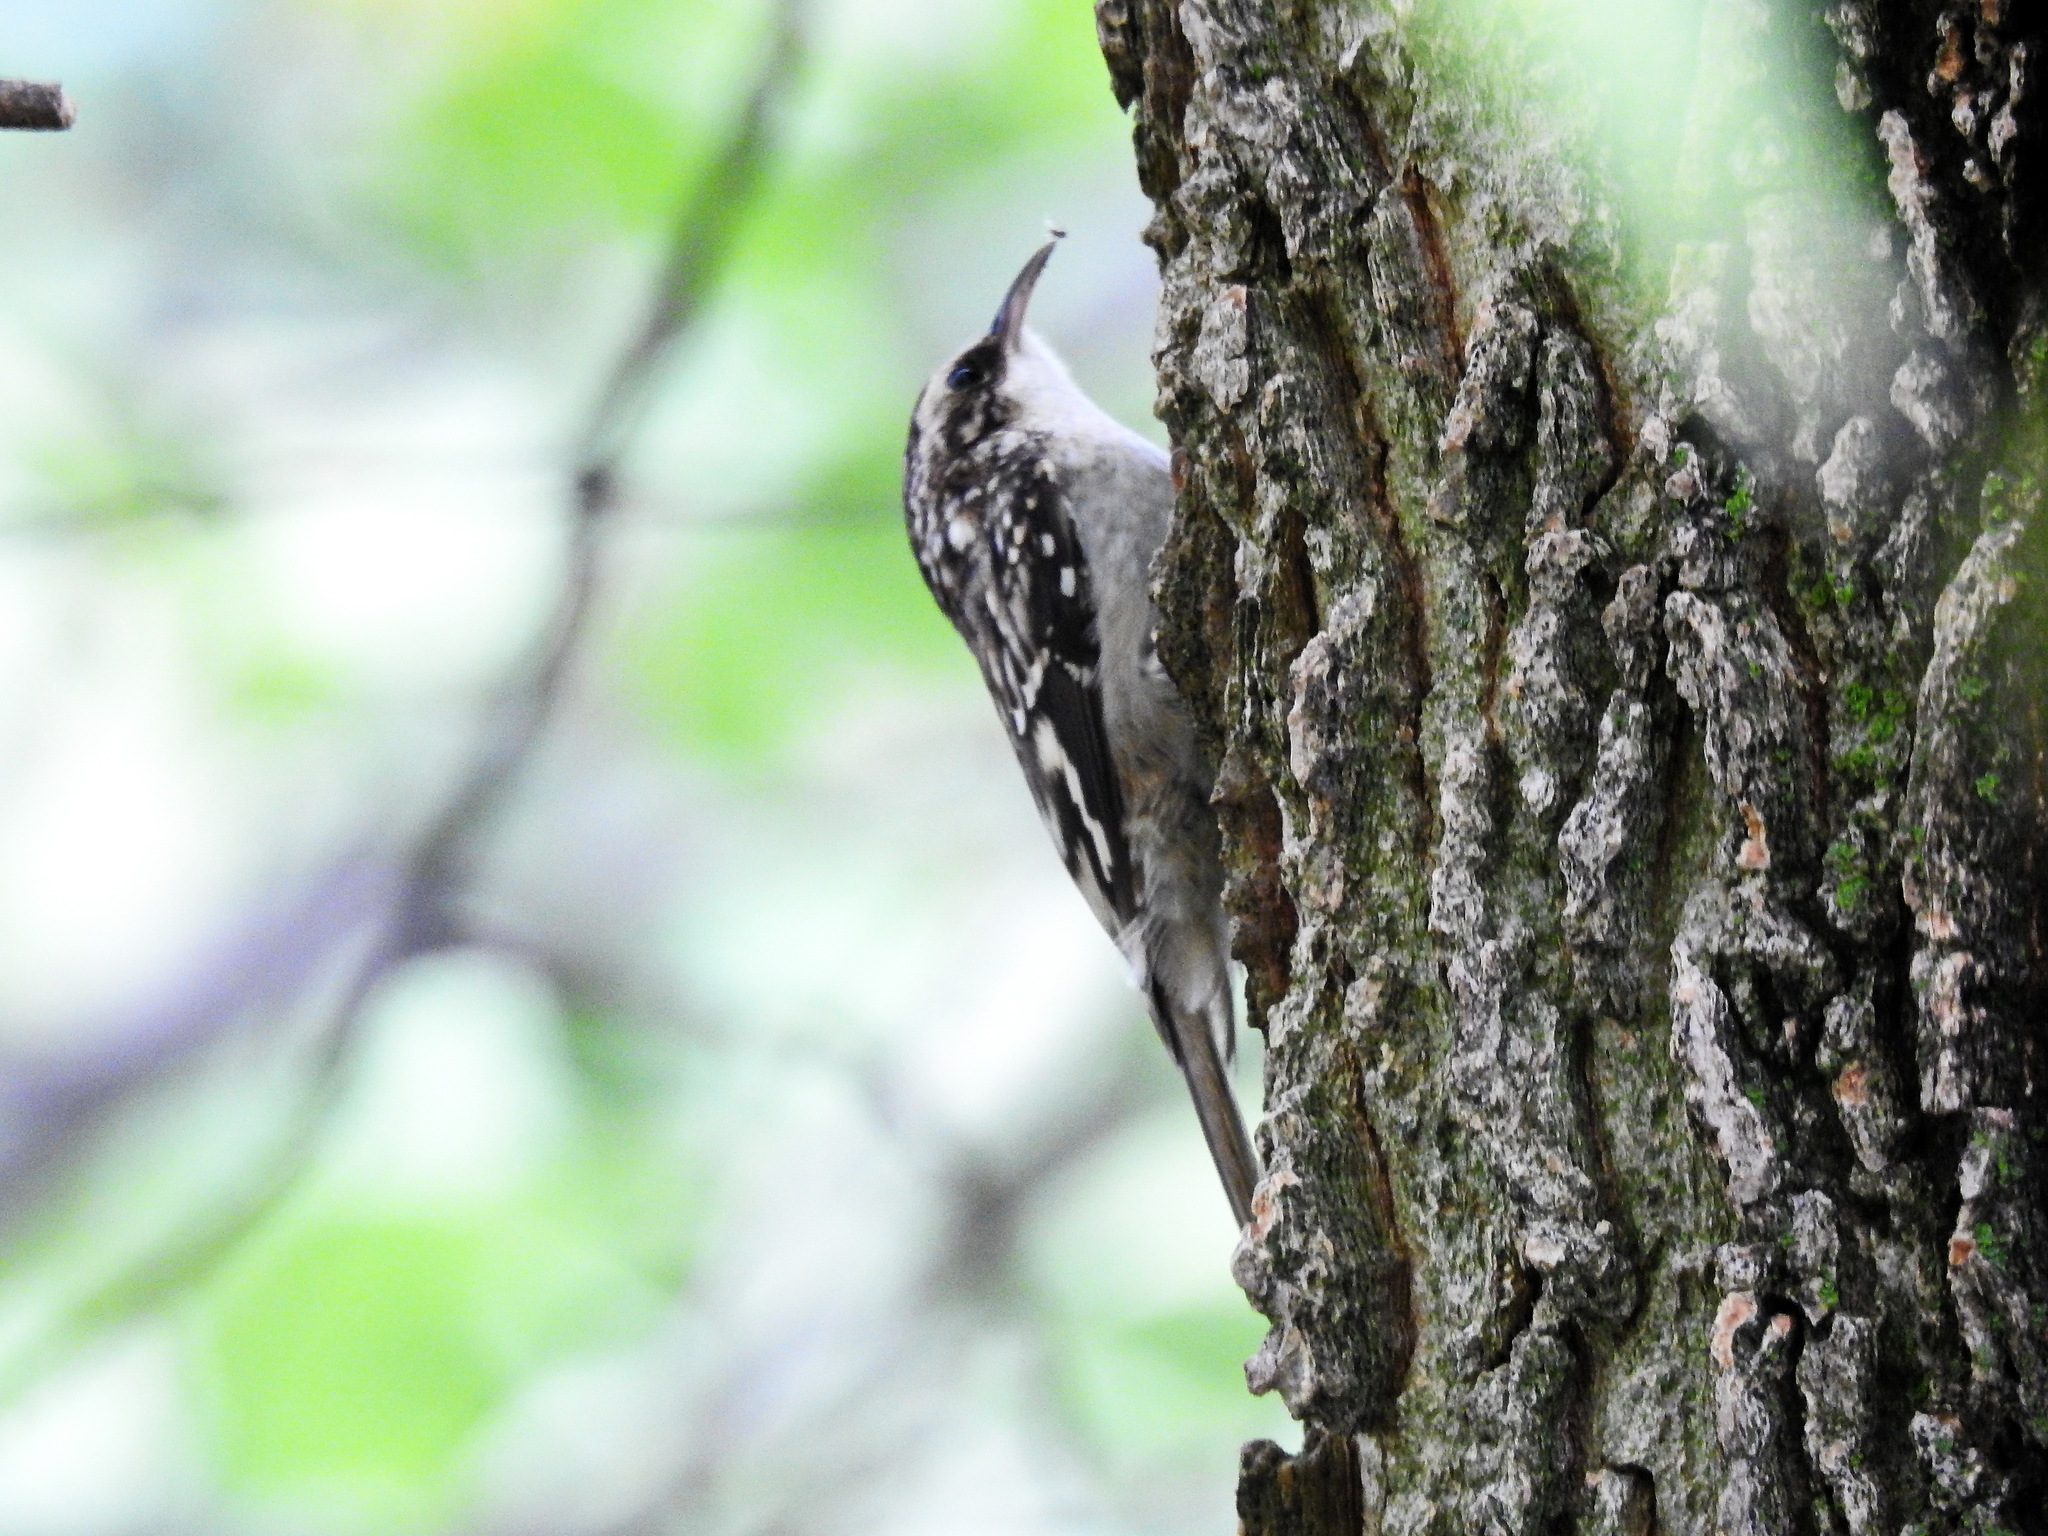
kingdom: Animalia
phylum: Chordata
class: Aves
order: Passeriformes
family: Certhiidae
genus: Certhia
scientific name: Certhia americana
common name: Brown creeper
